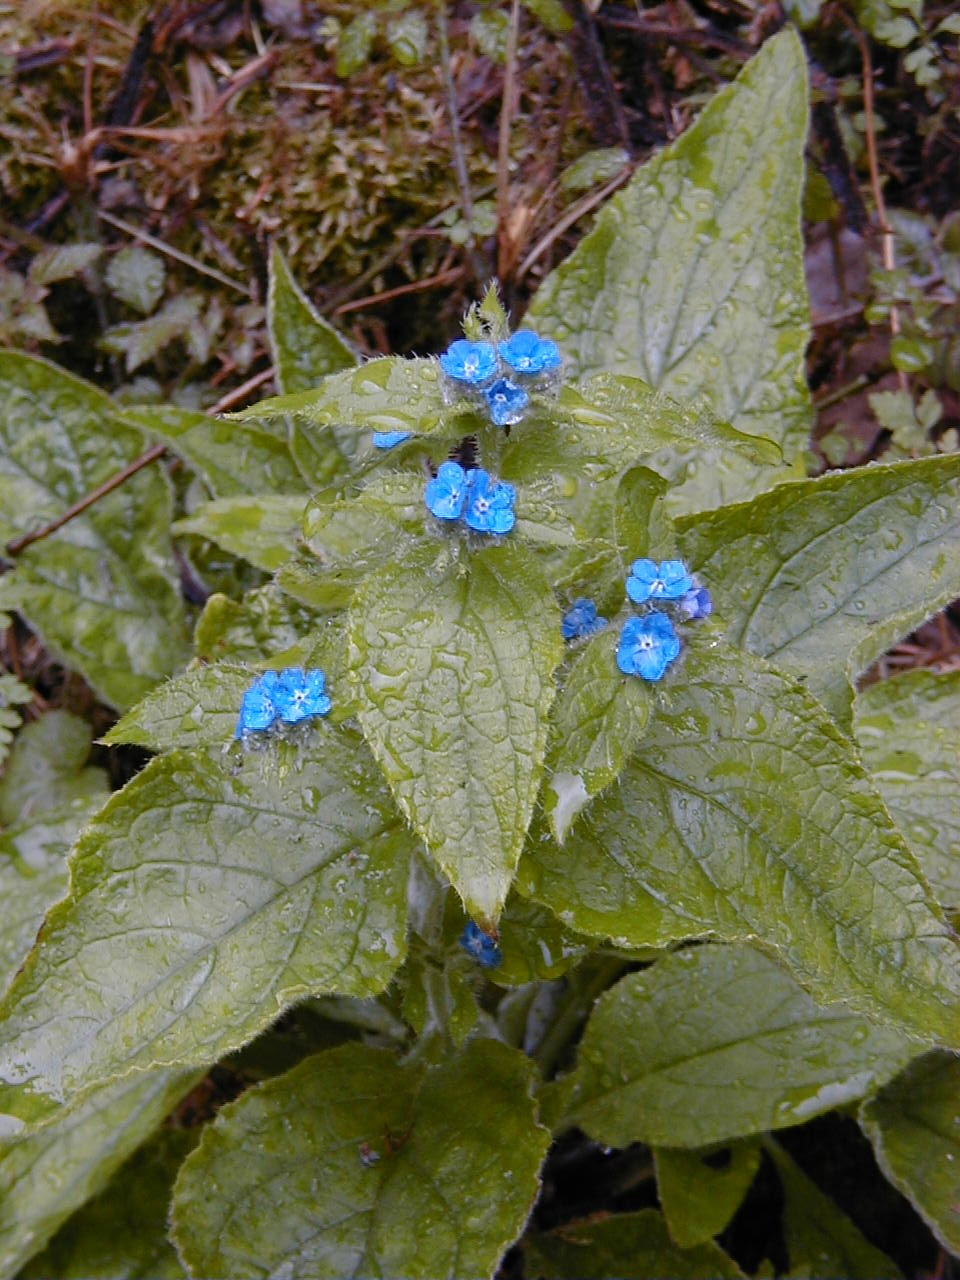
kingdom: Plantae
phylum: Tracheophyta
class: Magnoliopsida
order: Boraginales
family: Boraginaceae
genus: Pentaglottis
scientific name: Pentaglottis sempervirens
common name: Green alkanet
